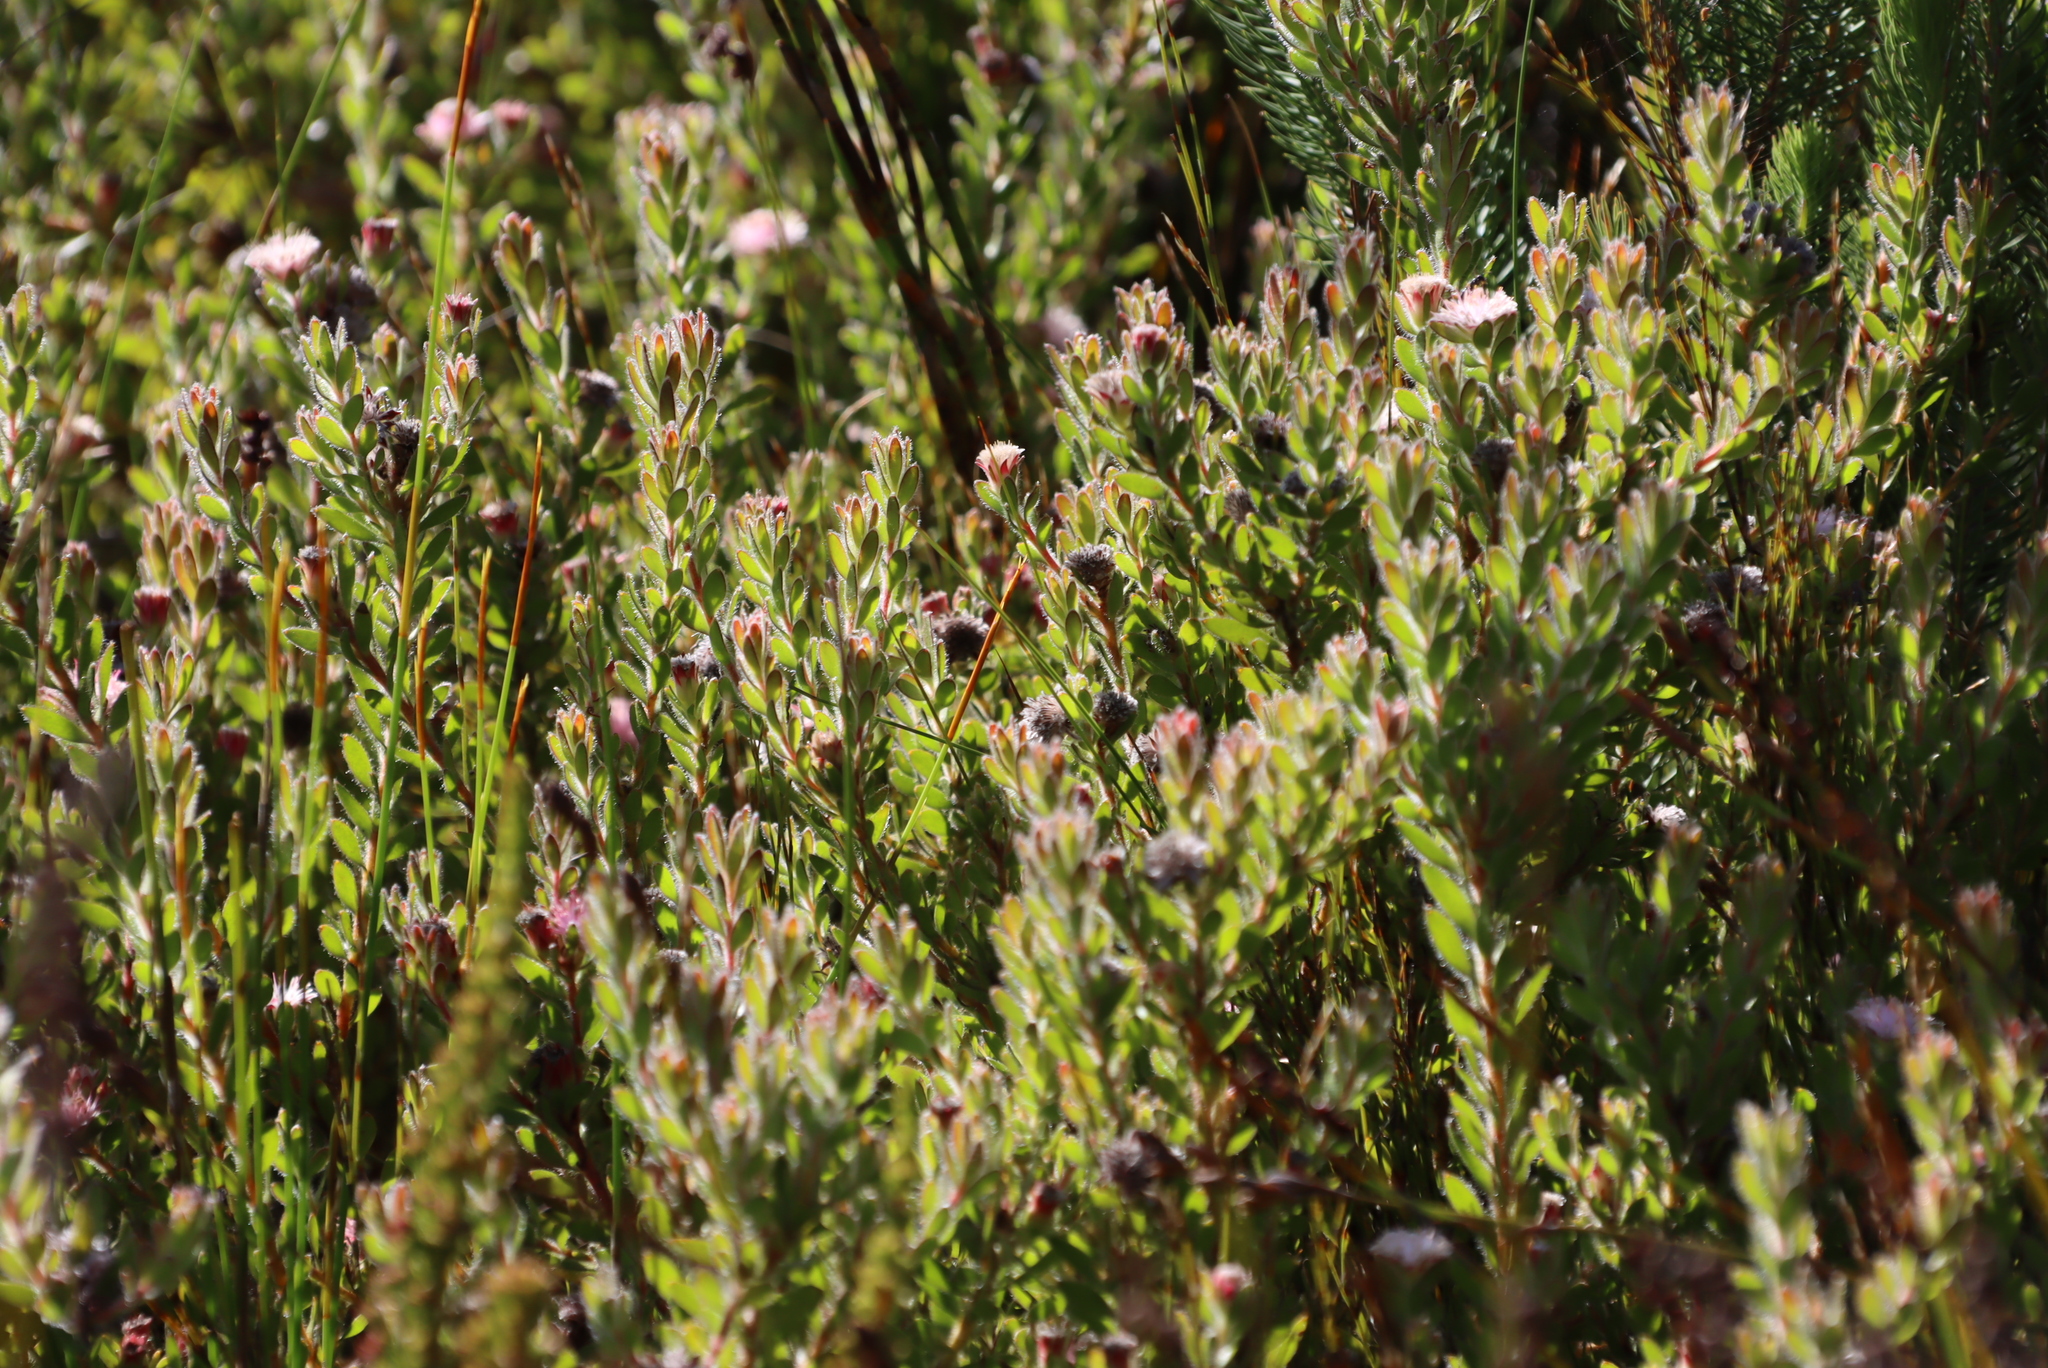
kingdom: Plantae
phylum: Tracheophyta
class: Magnoliopsida
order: Proteales
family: Proteaceae
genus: Diastella
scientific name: Diastella divaricata
